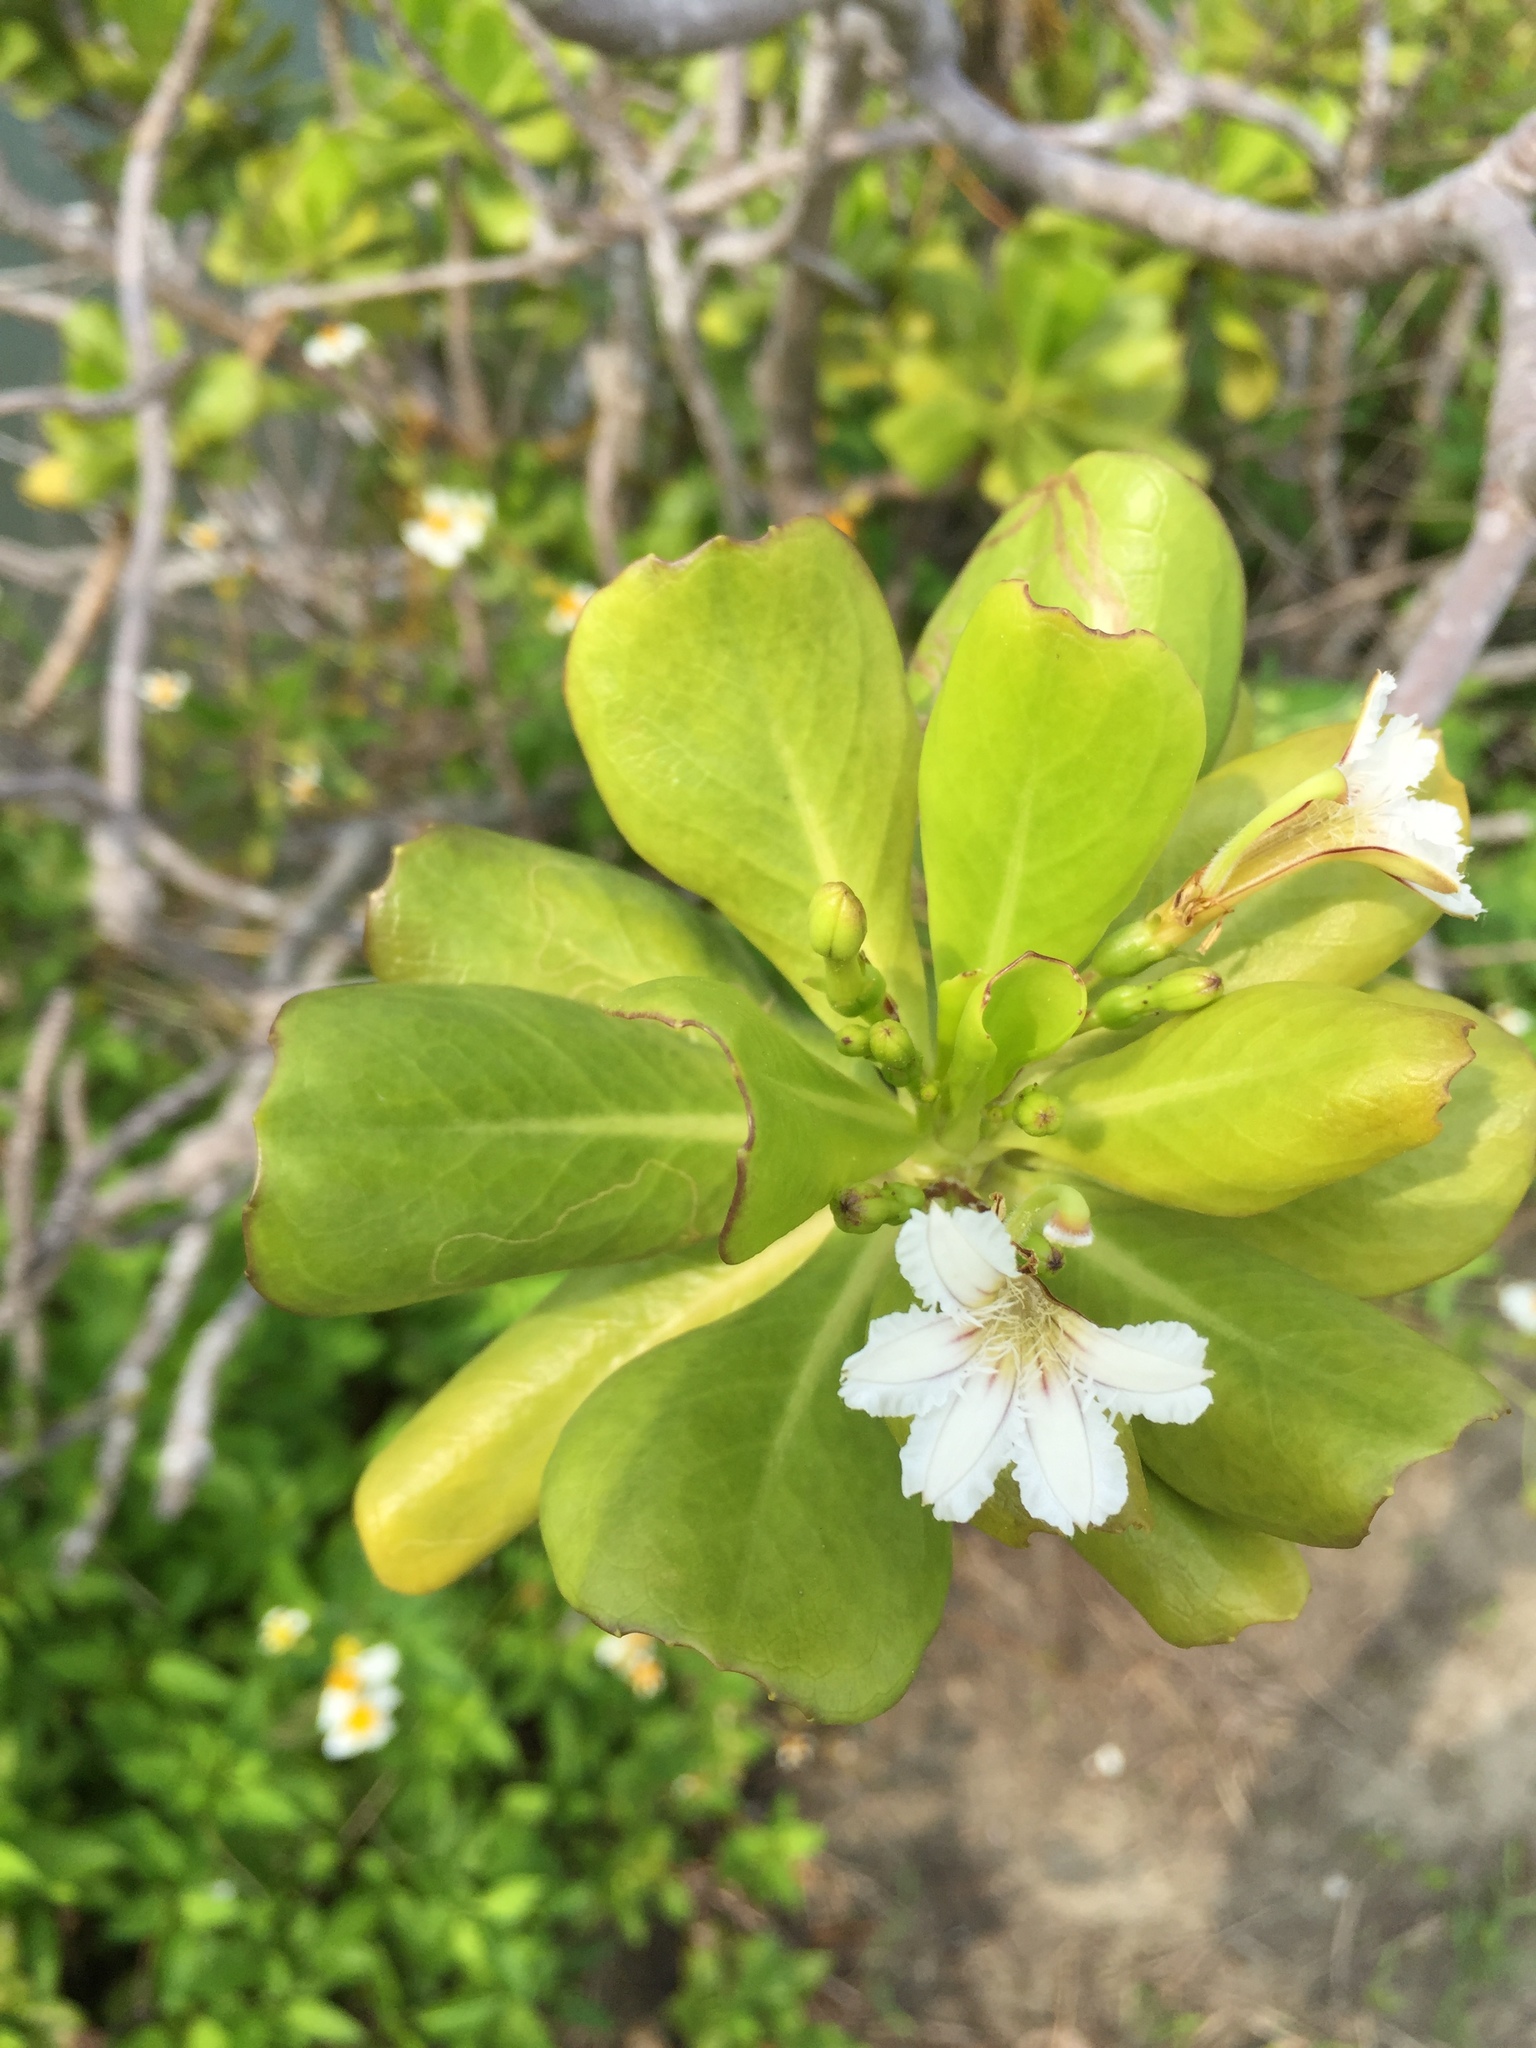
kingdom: Plantae
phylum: Tracheophyta
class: Magnoliopsida
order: Asterales
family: Goodeniaceae
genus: Scaevola
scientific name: Scaevola taccada
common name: Sea lettucetree
